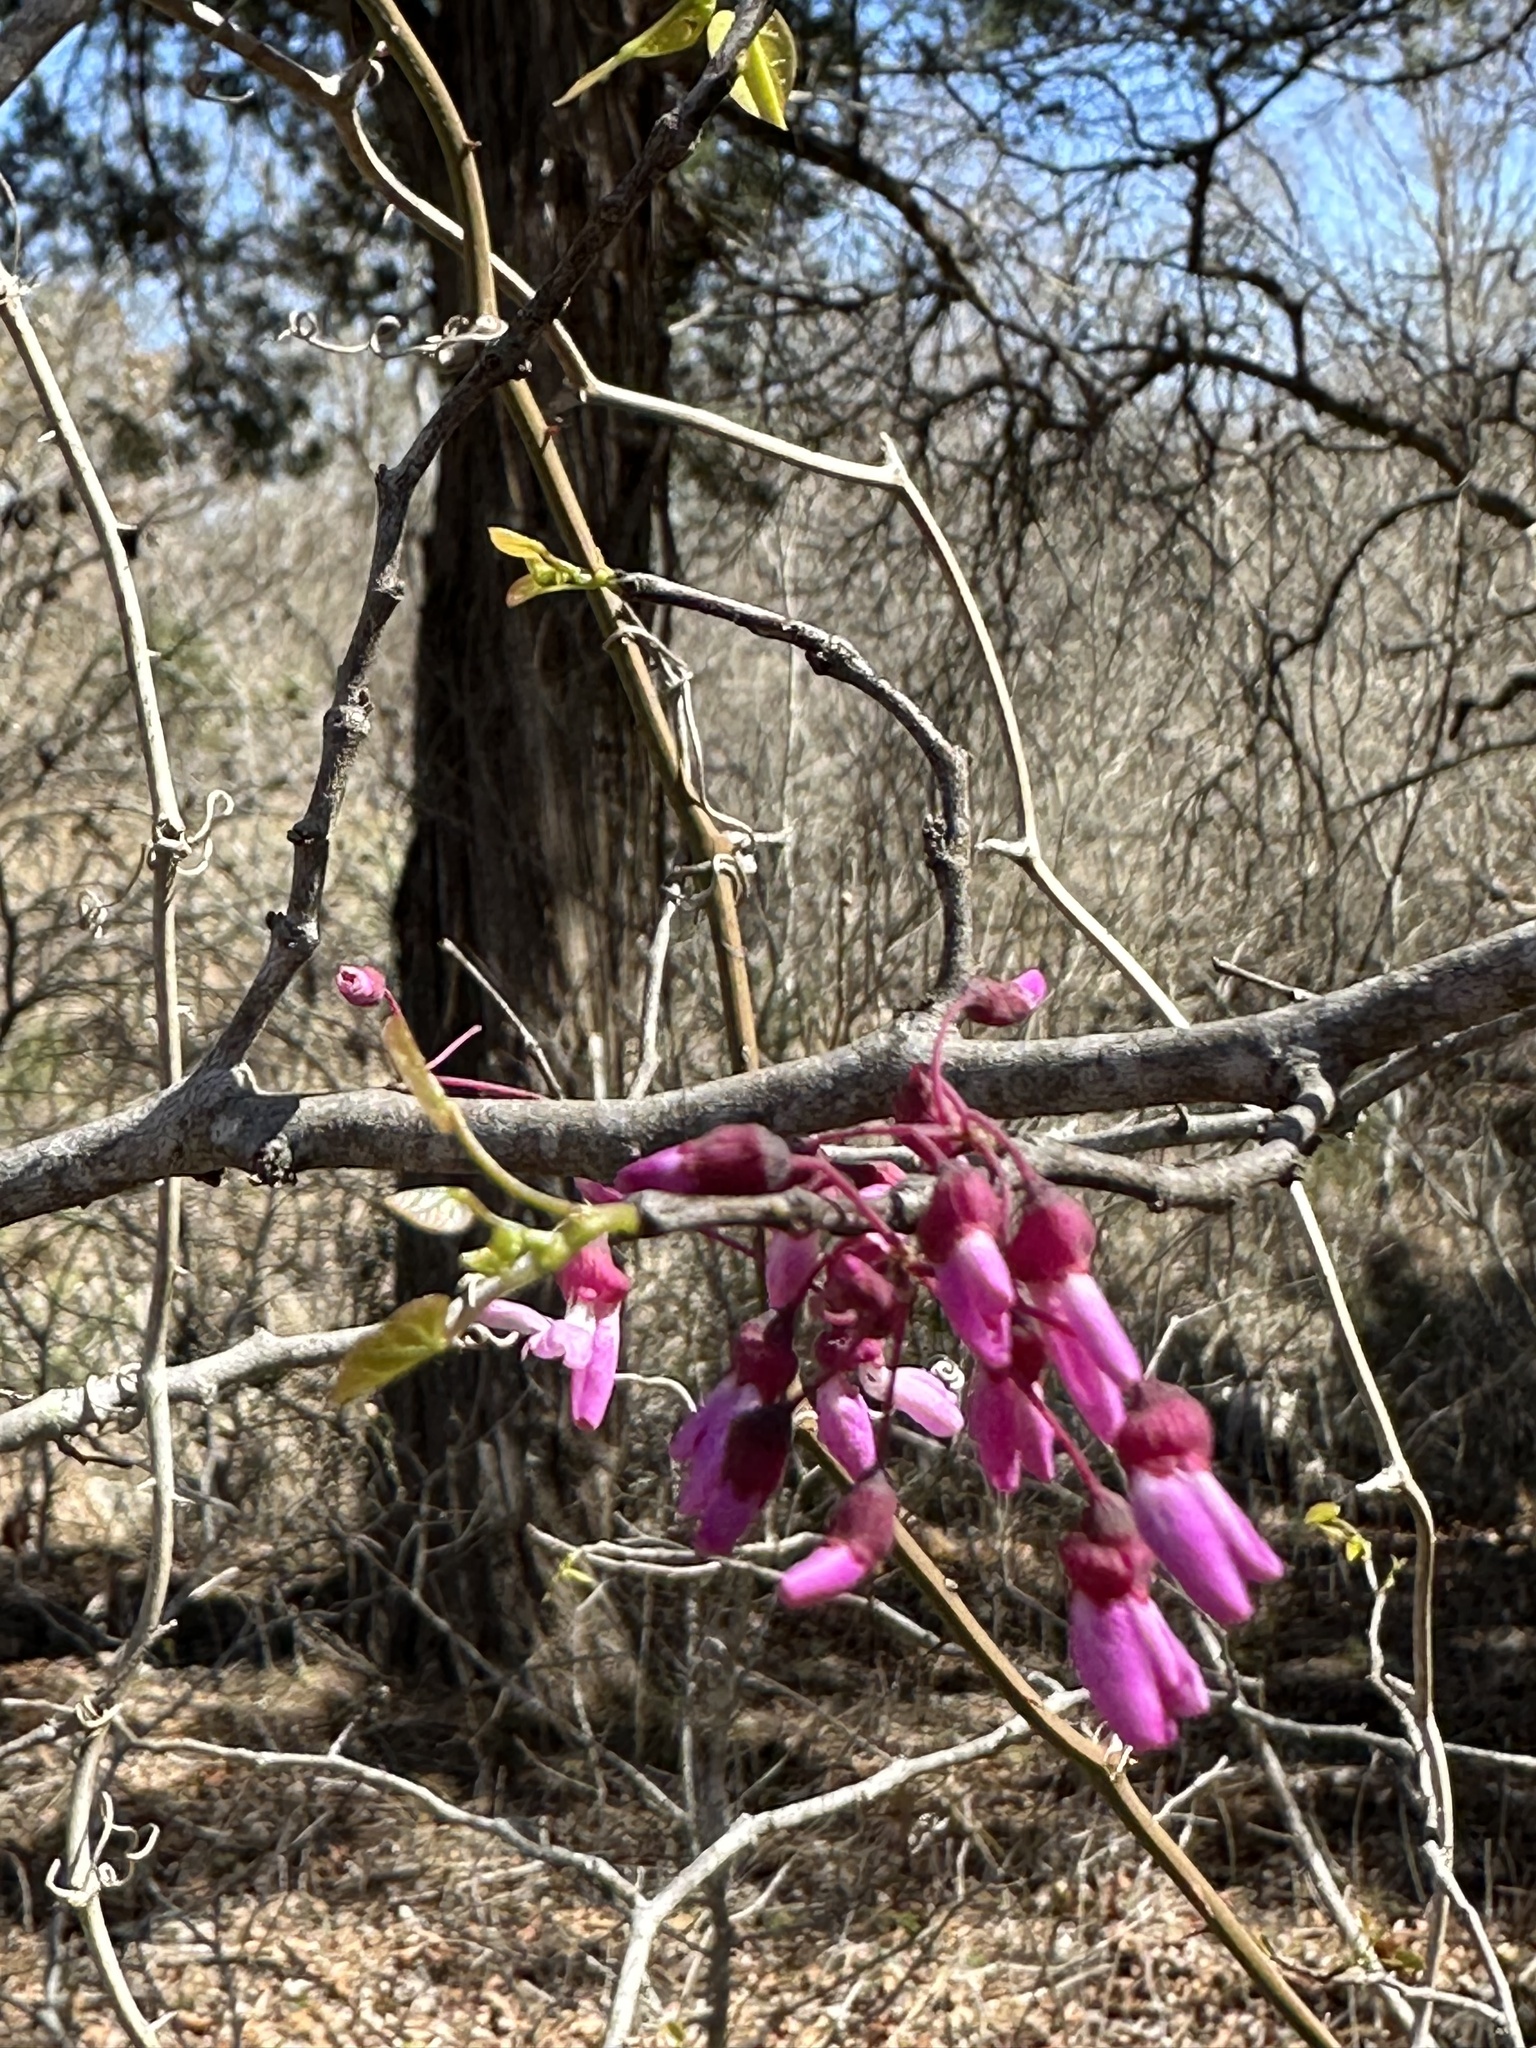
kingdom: Plantae
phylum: Tracheophyta
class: Magnoliopsida
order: Fabales
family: Fabaceae
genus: Cercis
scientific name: Cercis canadensis
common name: Eastern redbud
